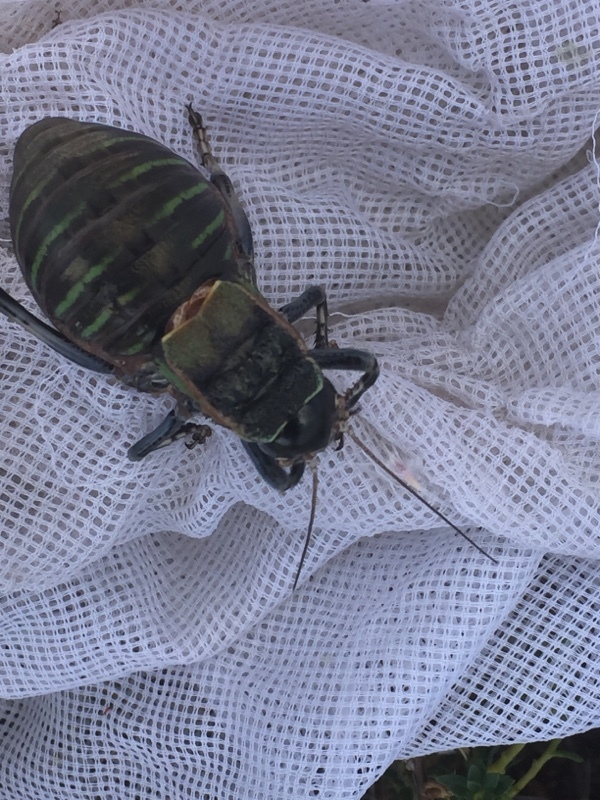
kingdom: Animalia
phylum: Arthropoda
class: Insecta
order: Orthoptera
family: Tettigoniidae
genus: Pycnogaster
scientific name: Pycnogaster jugicola
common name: Fat-bellied saddle bush-cricket
